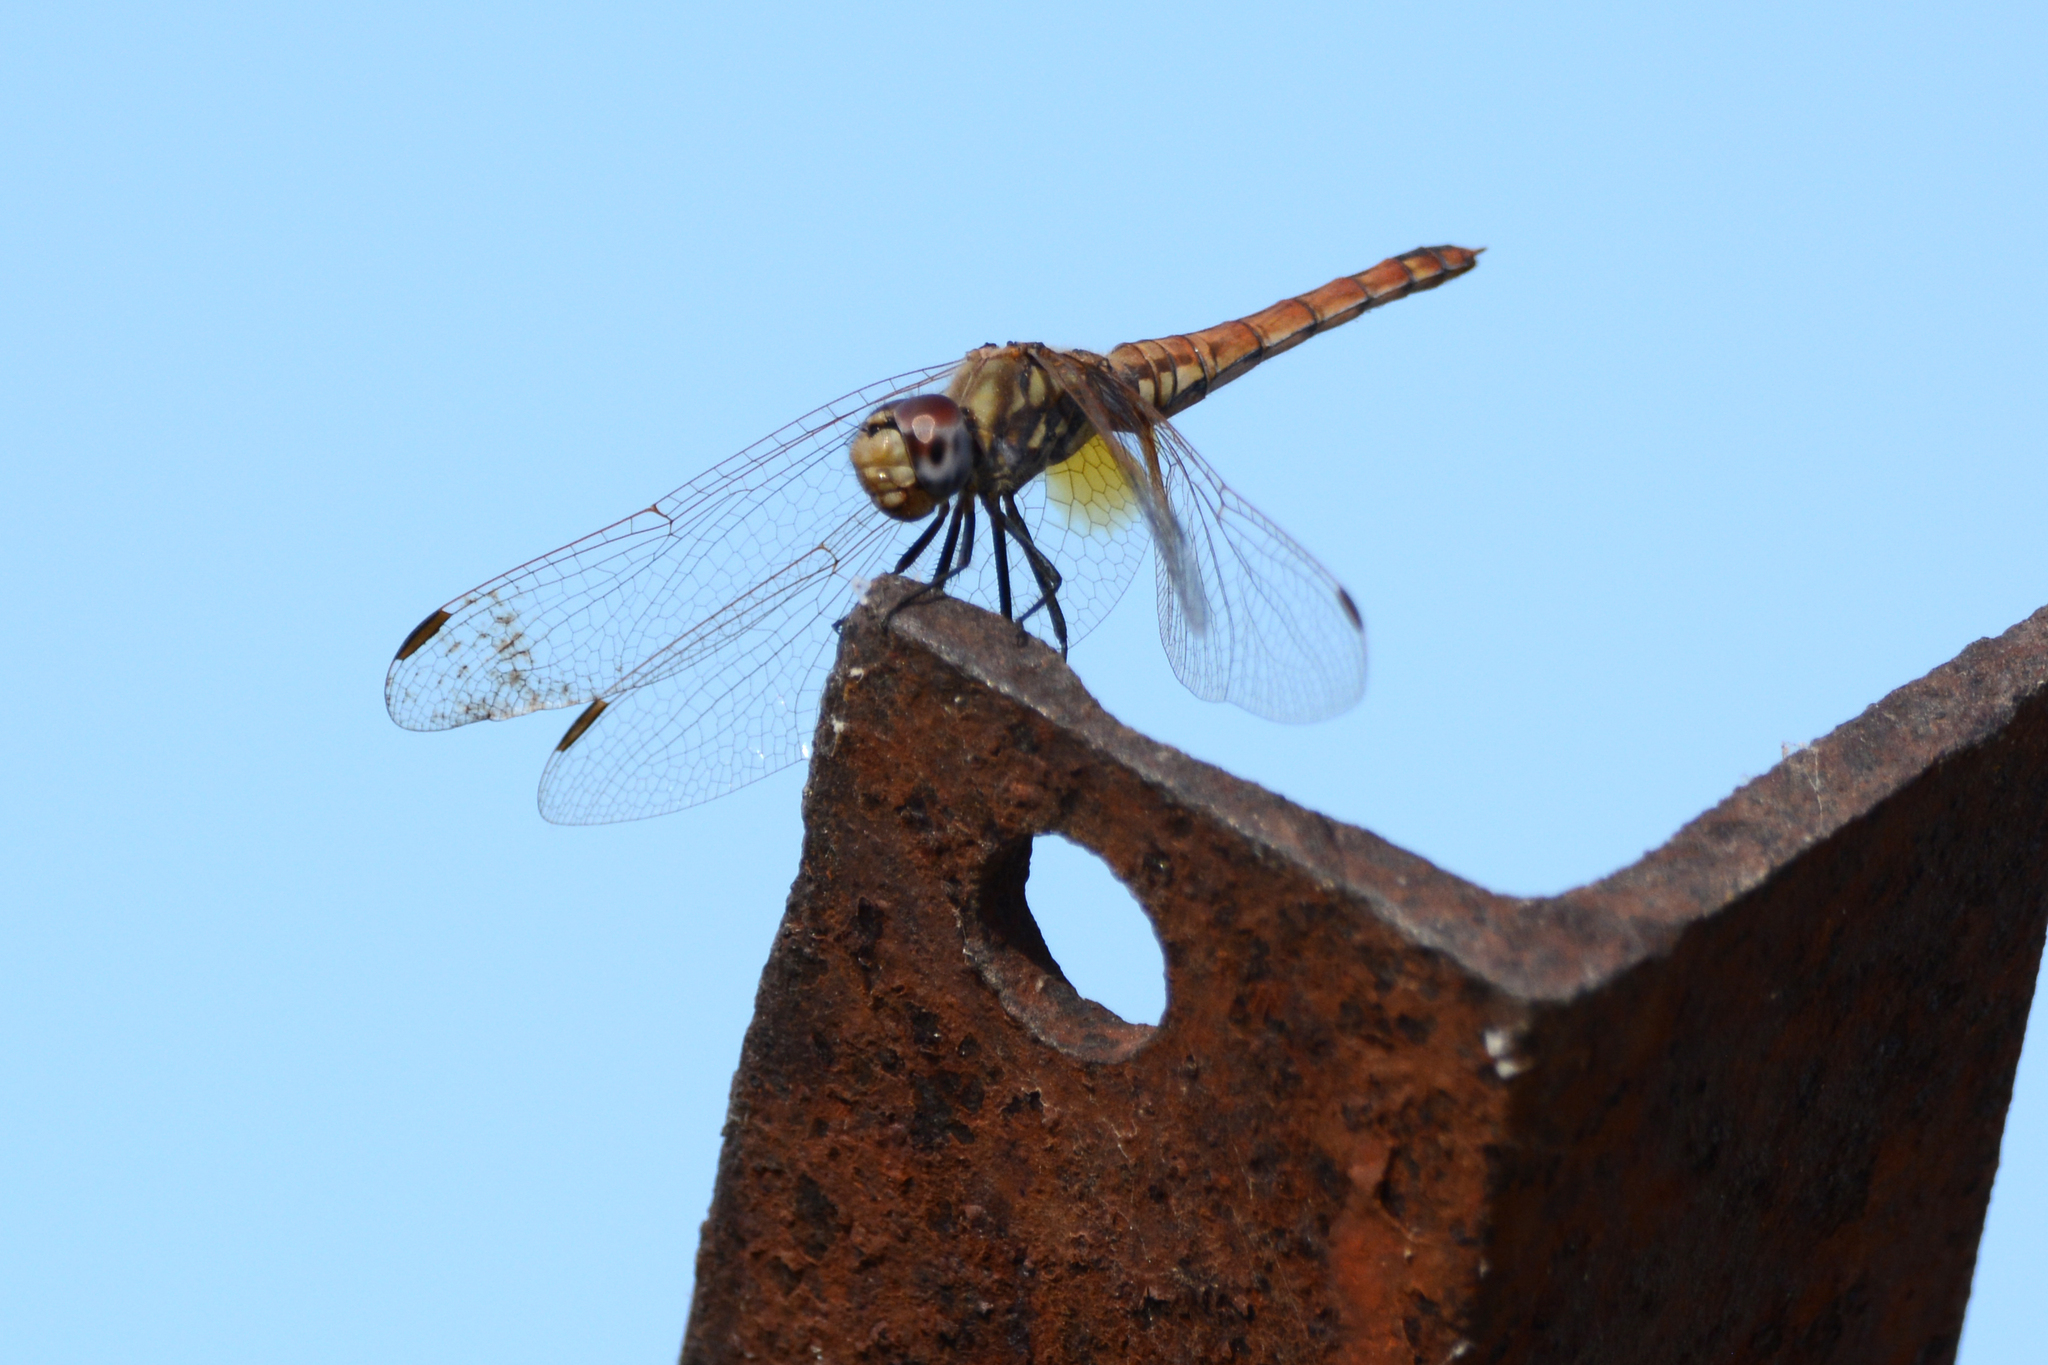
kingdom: Animalia
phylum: Arthropoda
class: Insecta
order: Odonata
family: Libellulidae
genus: Trithemis
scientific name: Trithemis annulata
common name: Violet dropwing
